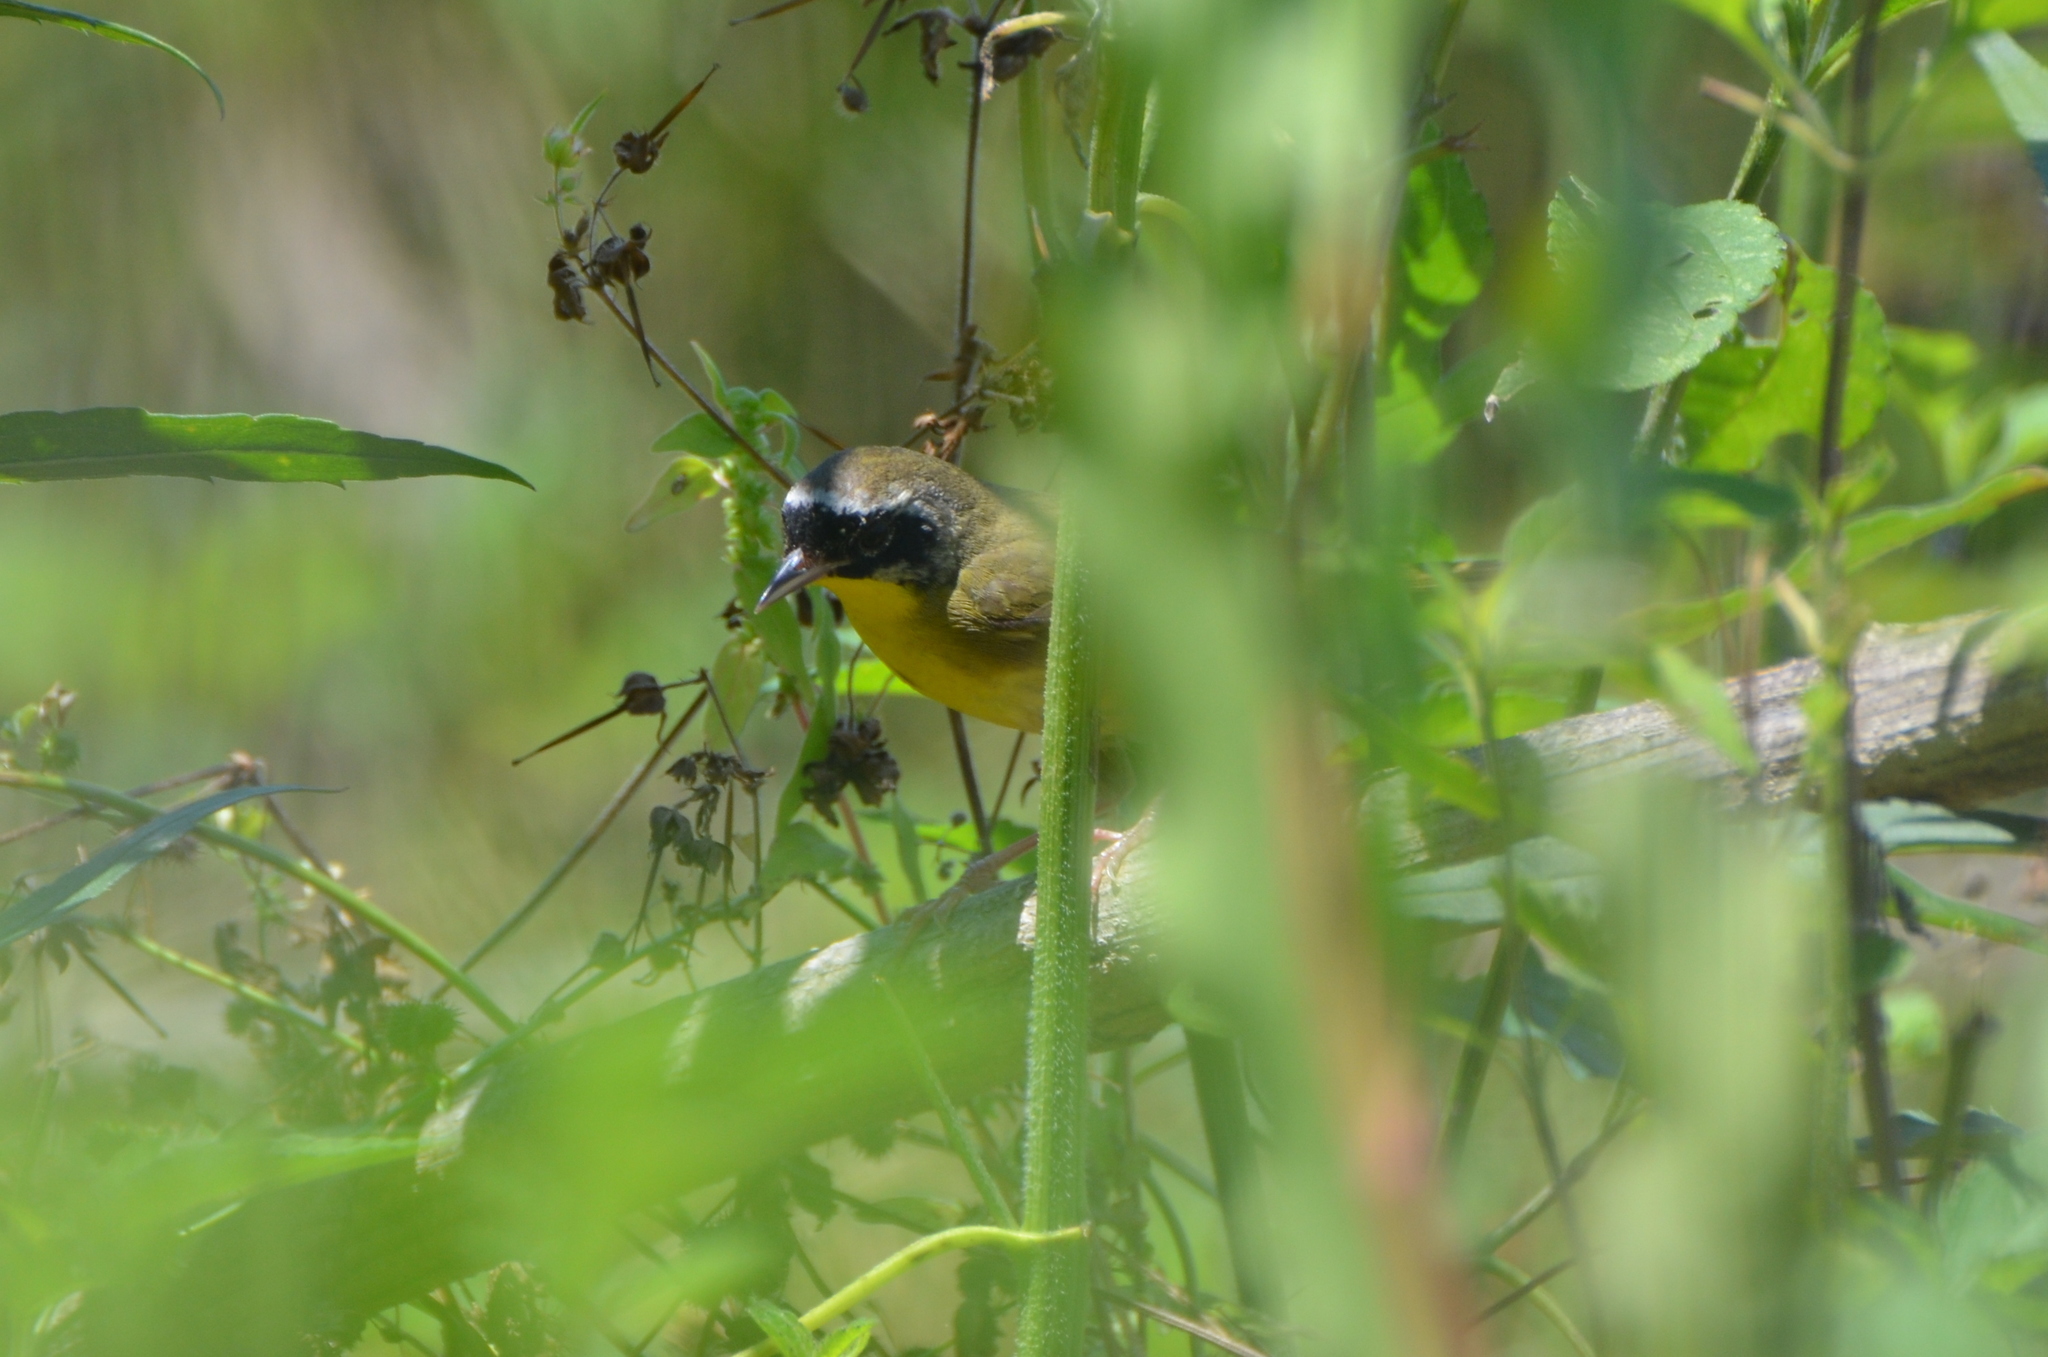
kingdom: Animalia
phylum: Chordata
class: Aves
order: Passeriformes
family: Parulidae
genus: Geothlypis
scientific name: Geothlypis trichas
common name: Common yellowthroat
